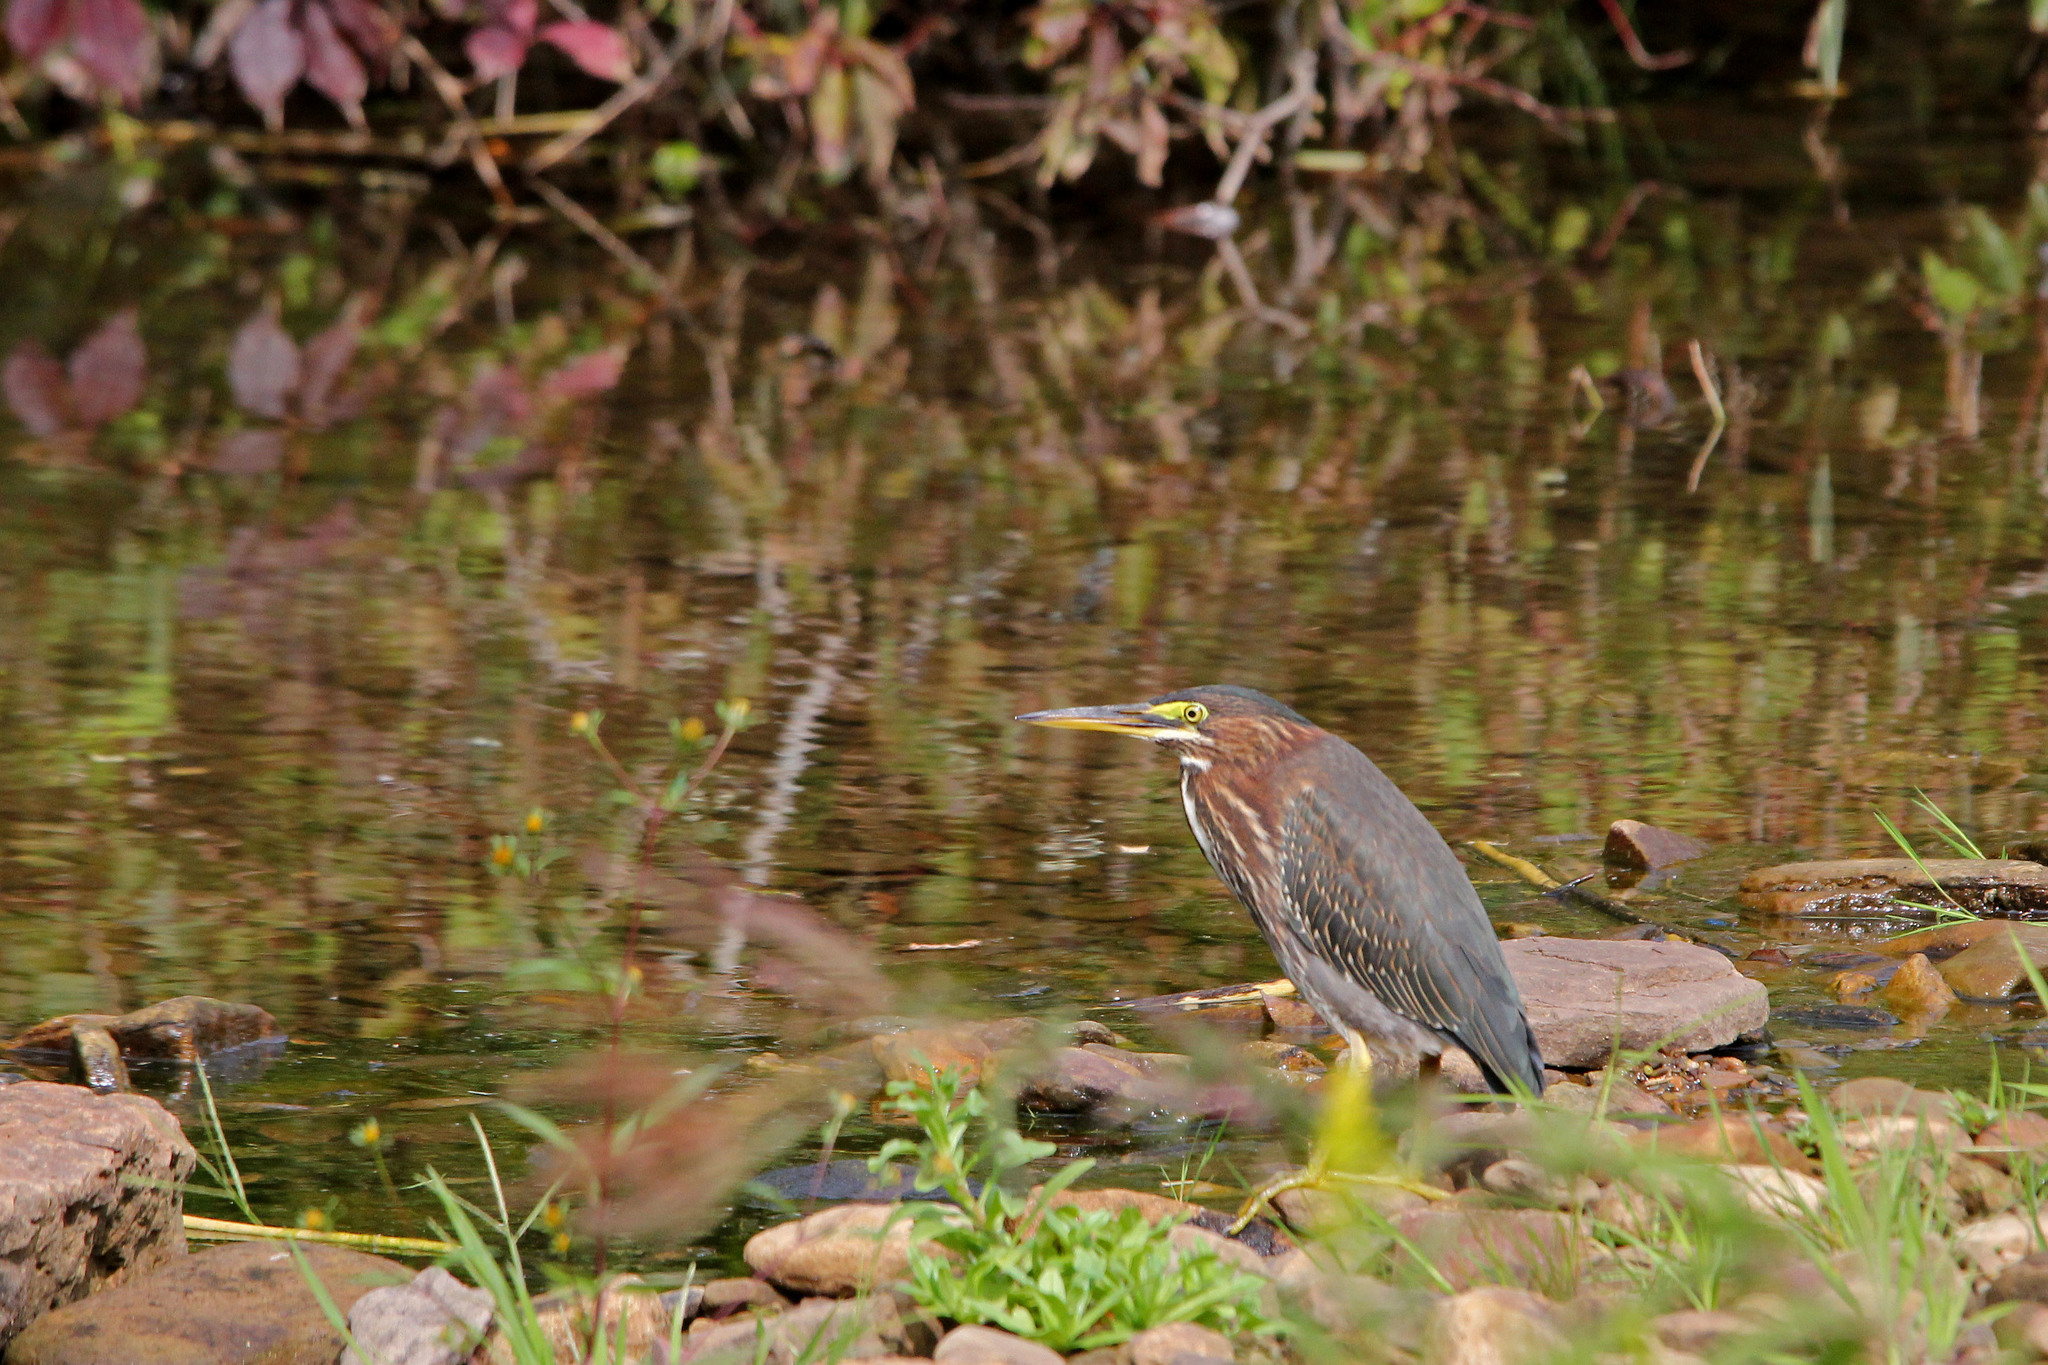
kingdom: Animalia
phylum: Chordata
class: Aves
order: Pelecaniformes
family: Ardeidae
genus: Butorides
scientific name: Butorides virescens
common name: Green heron
